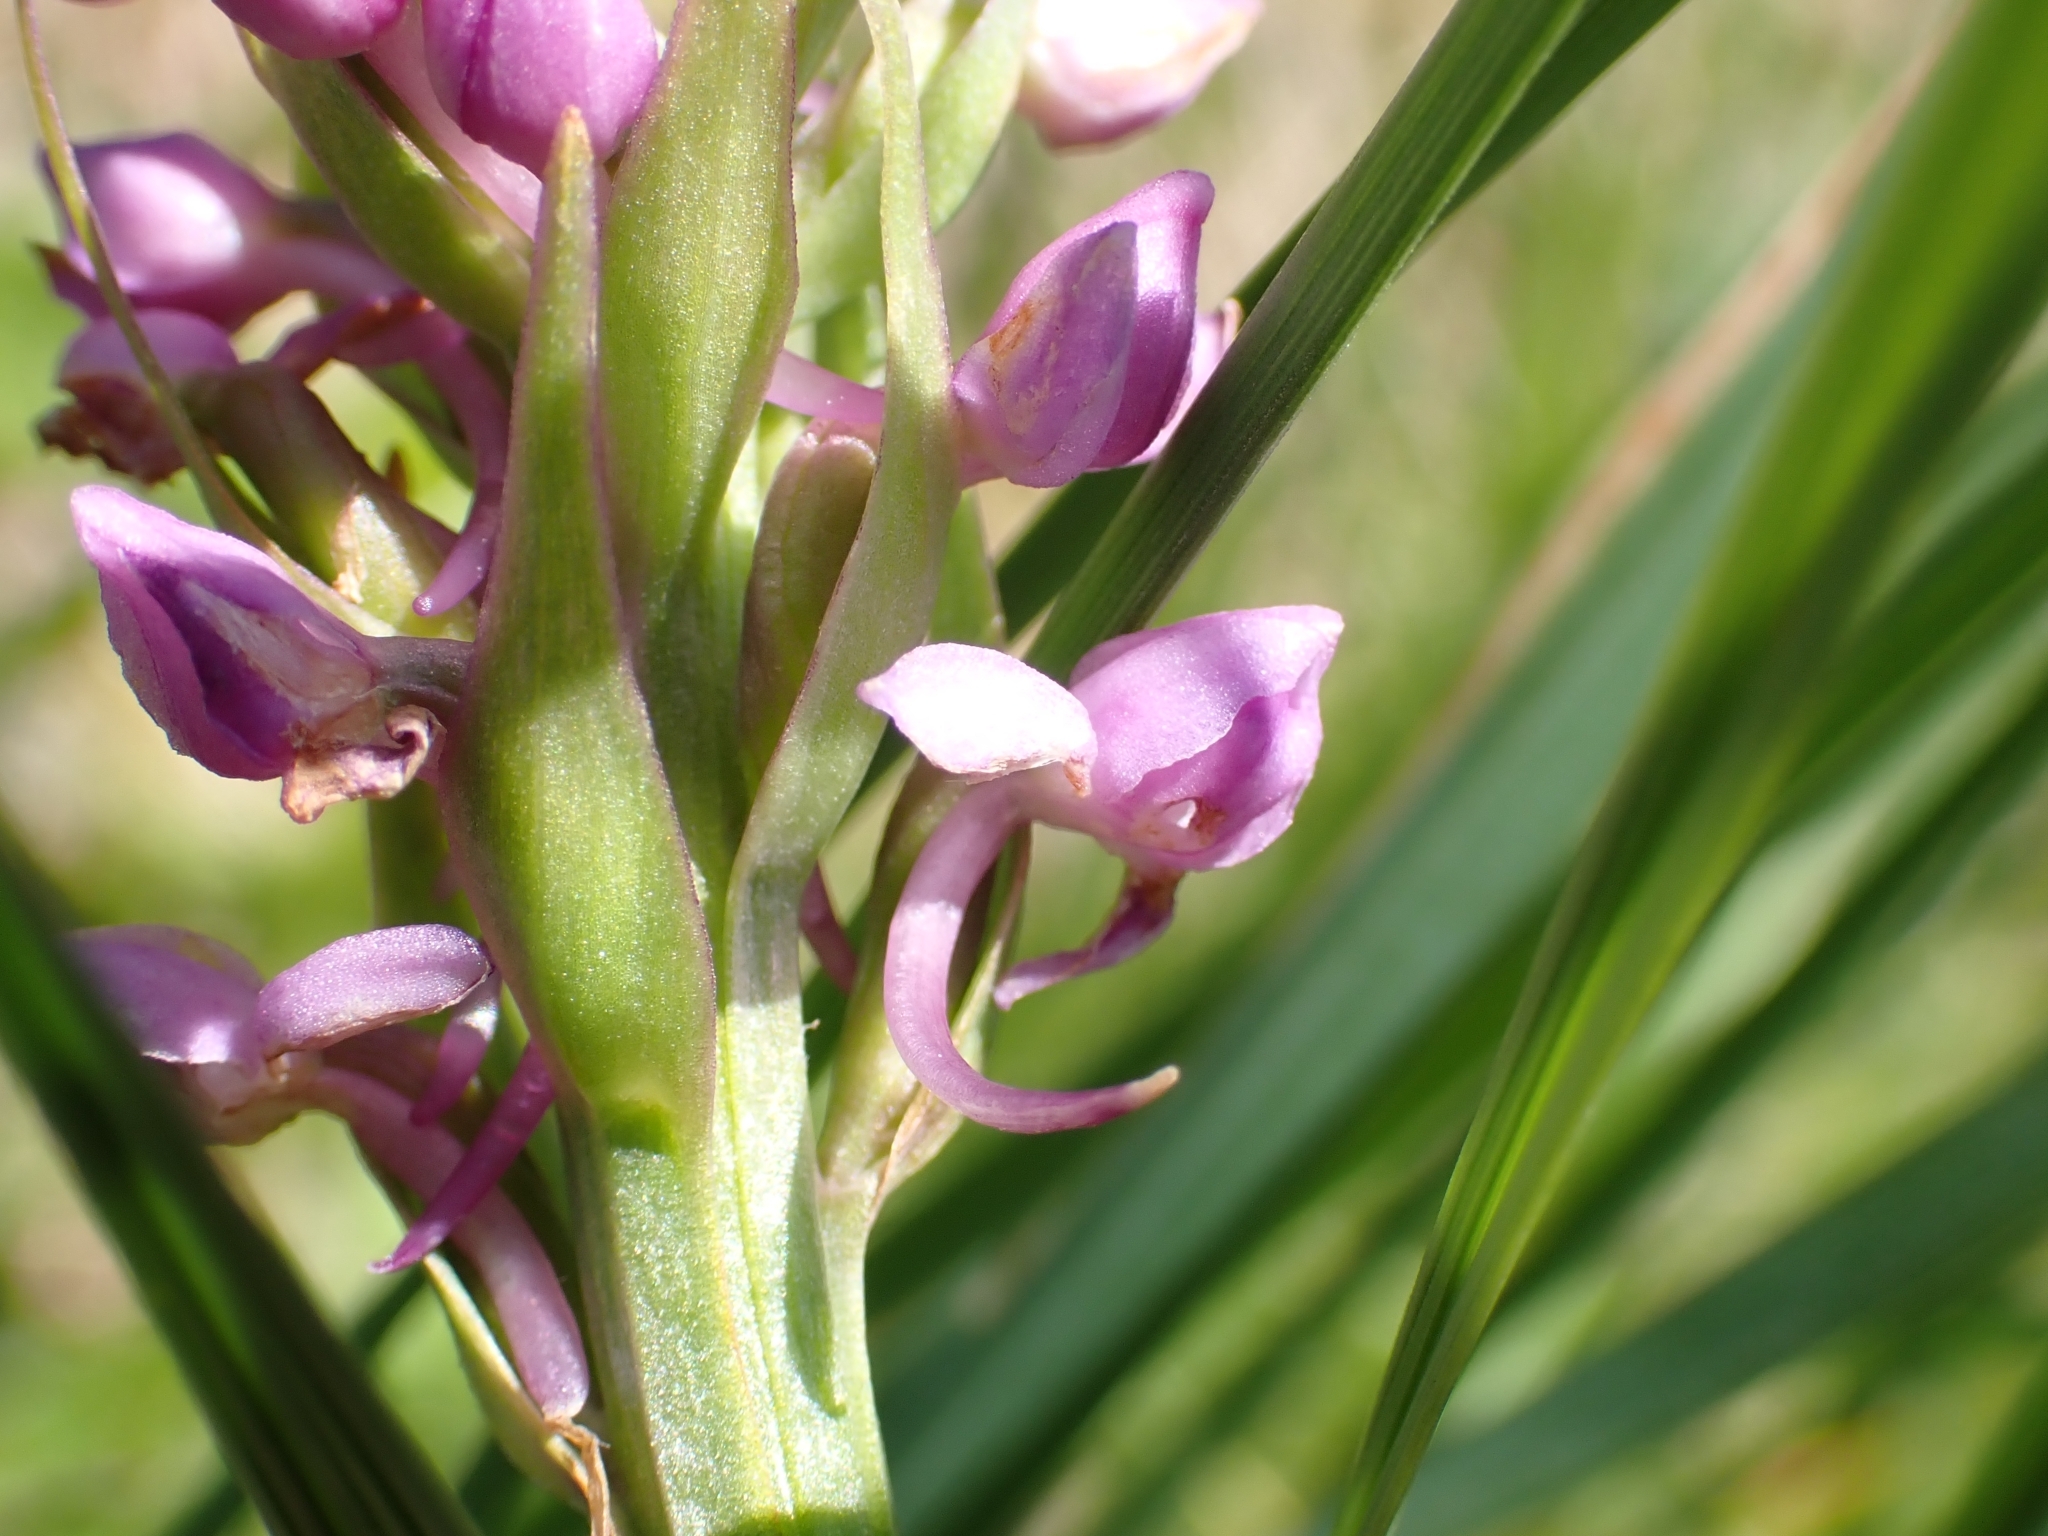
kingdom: Plantae
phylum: Tracheophyta
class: Liliopsida
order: Asparagales
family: Orchidaceae
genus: Gymnadenia
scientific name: Gymnadenia conopsea
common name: Fragrant orchid
